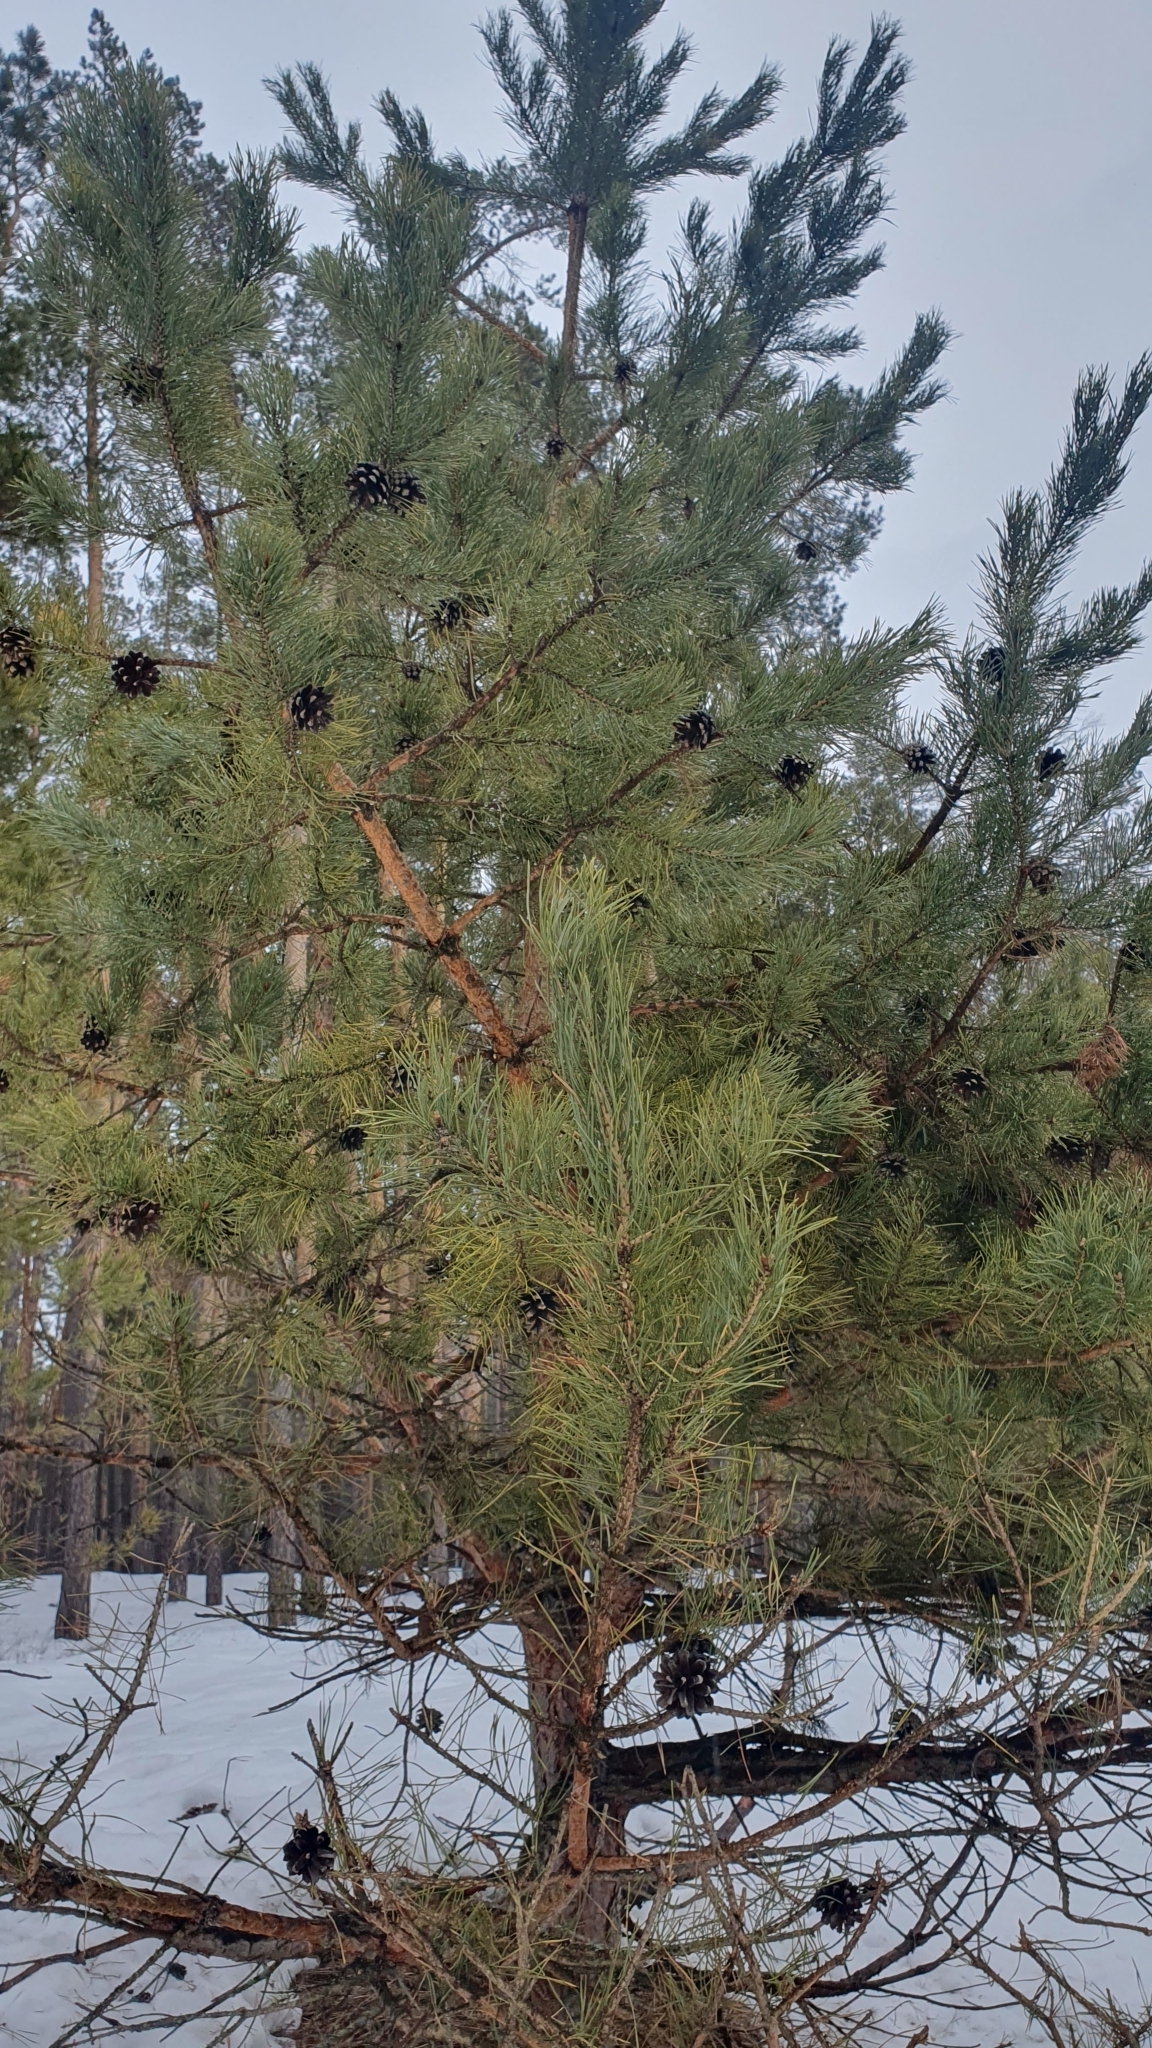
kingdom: Plantae
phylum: Tracheophyta
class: Pinopsida
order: Pinales
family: Pinaceae
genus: Pinus
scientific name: Pinus sylvestris
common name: Scots pine
